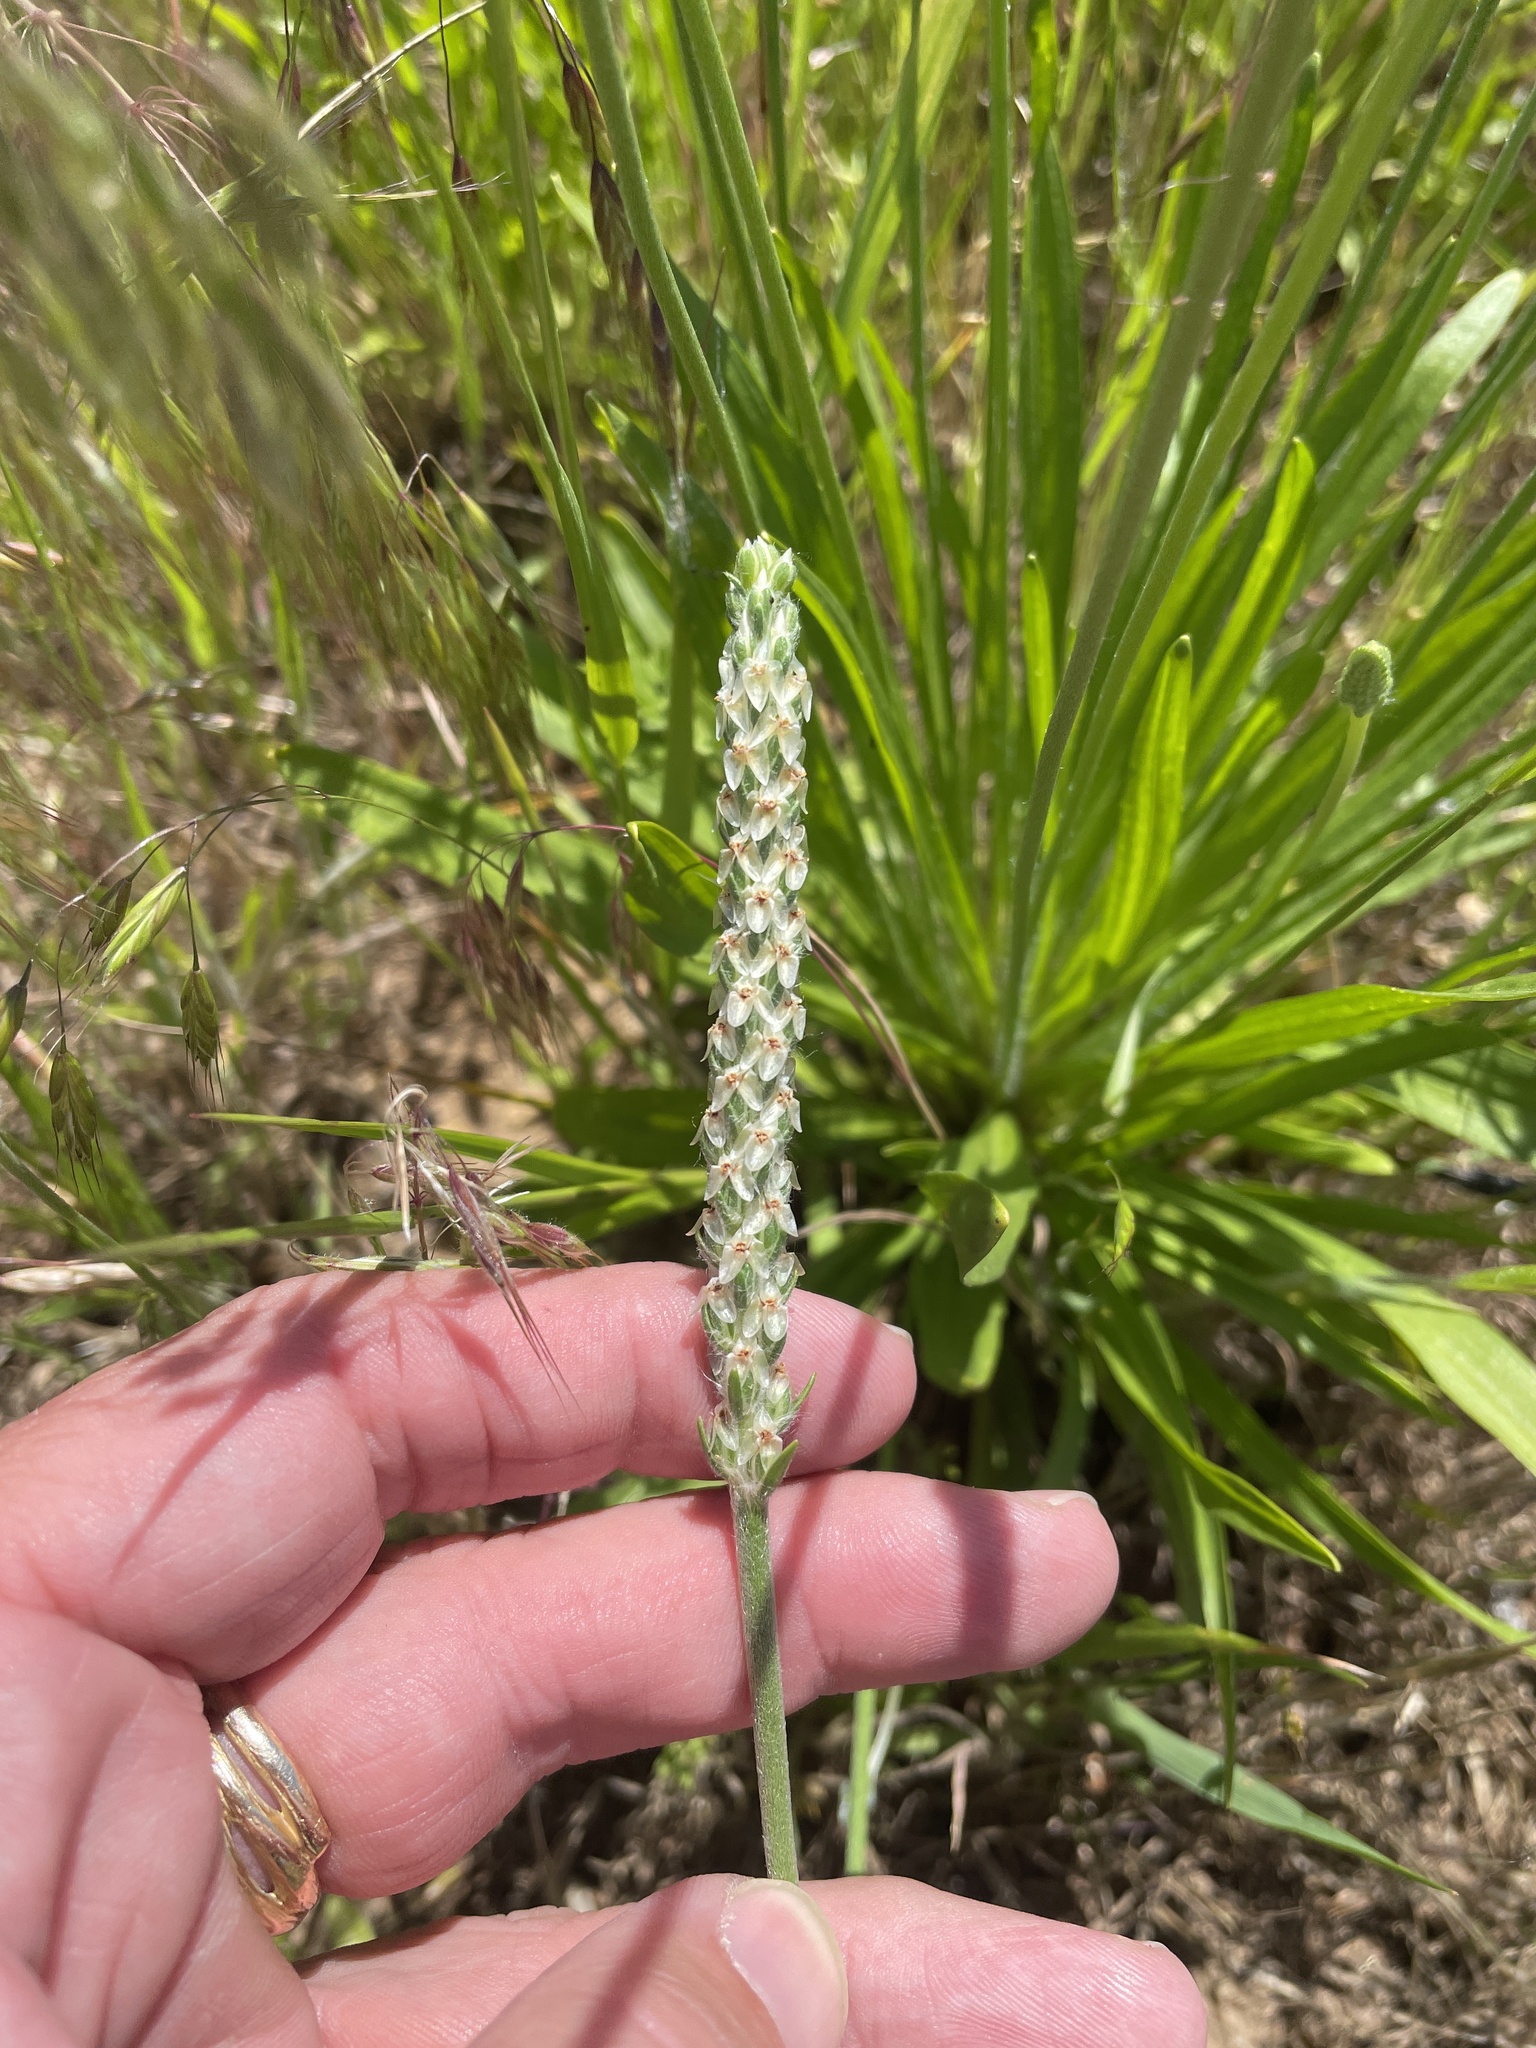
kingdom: Plantae
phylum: Tracheophyta
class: Magnoliopsida
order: Lamiales
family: Plantaginaceae
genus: Plantago
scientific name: Plantago wrightiana
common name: Wright's plantain
